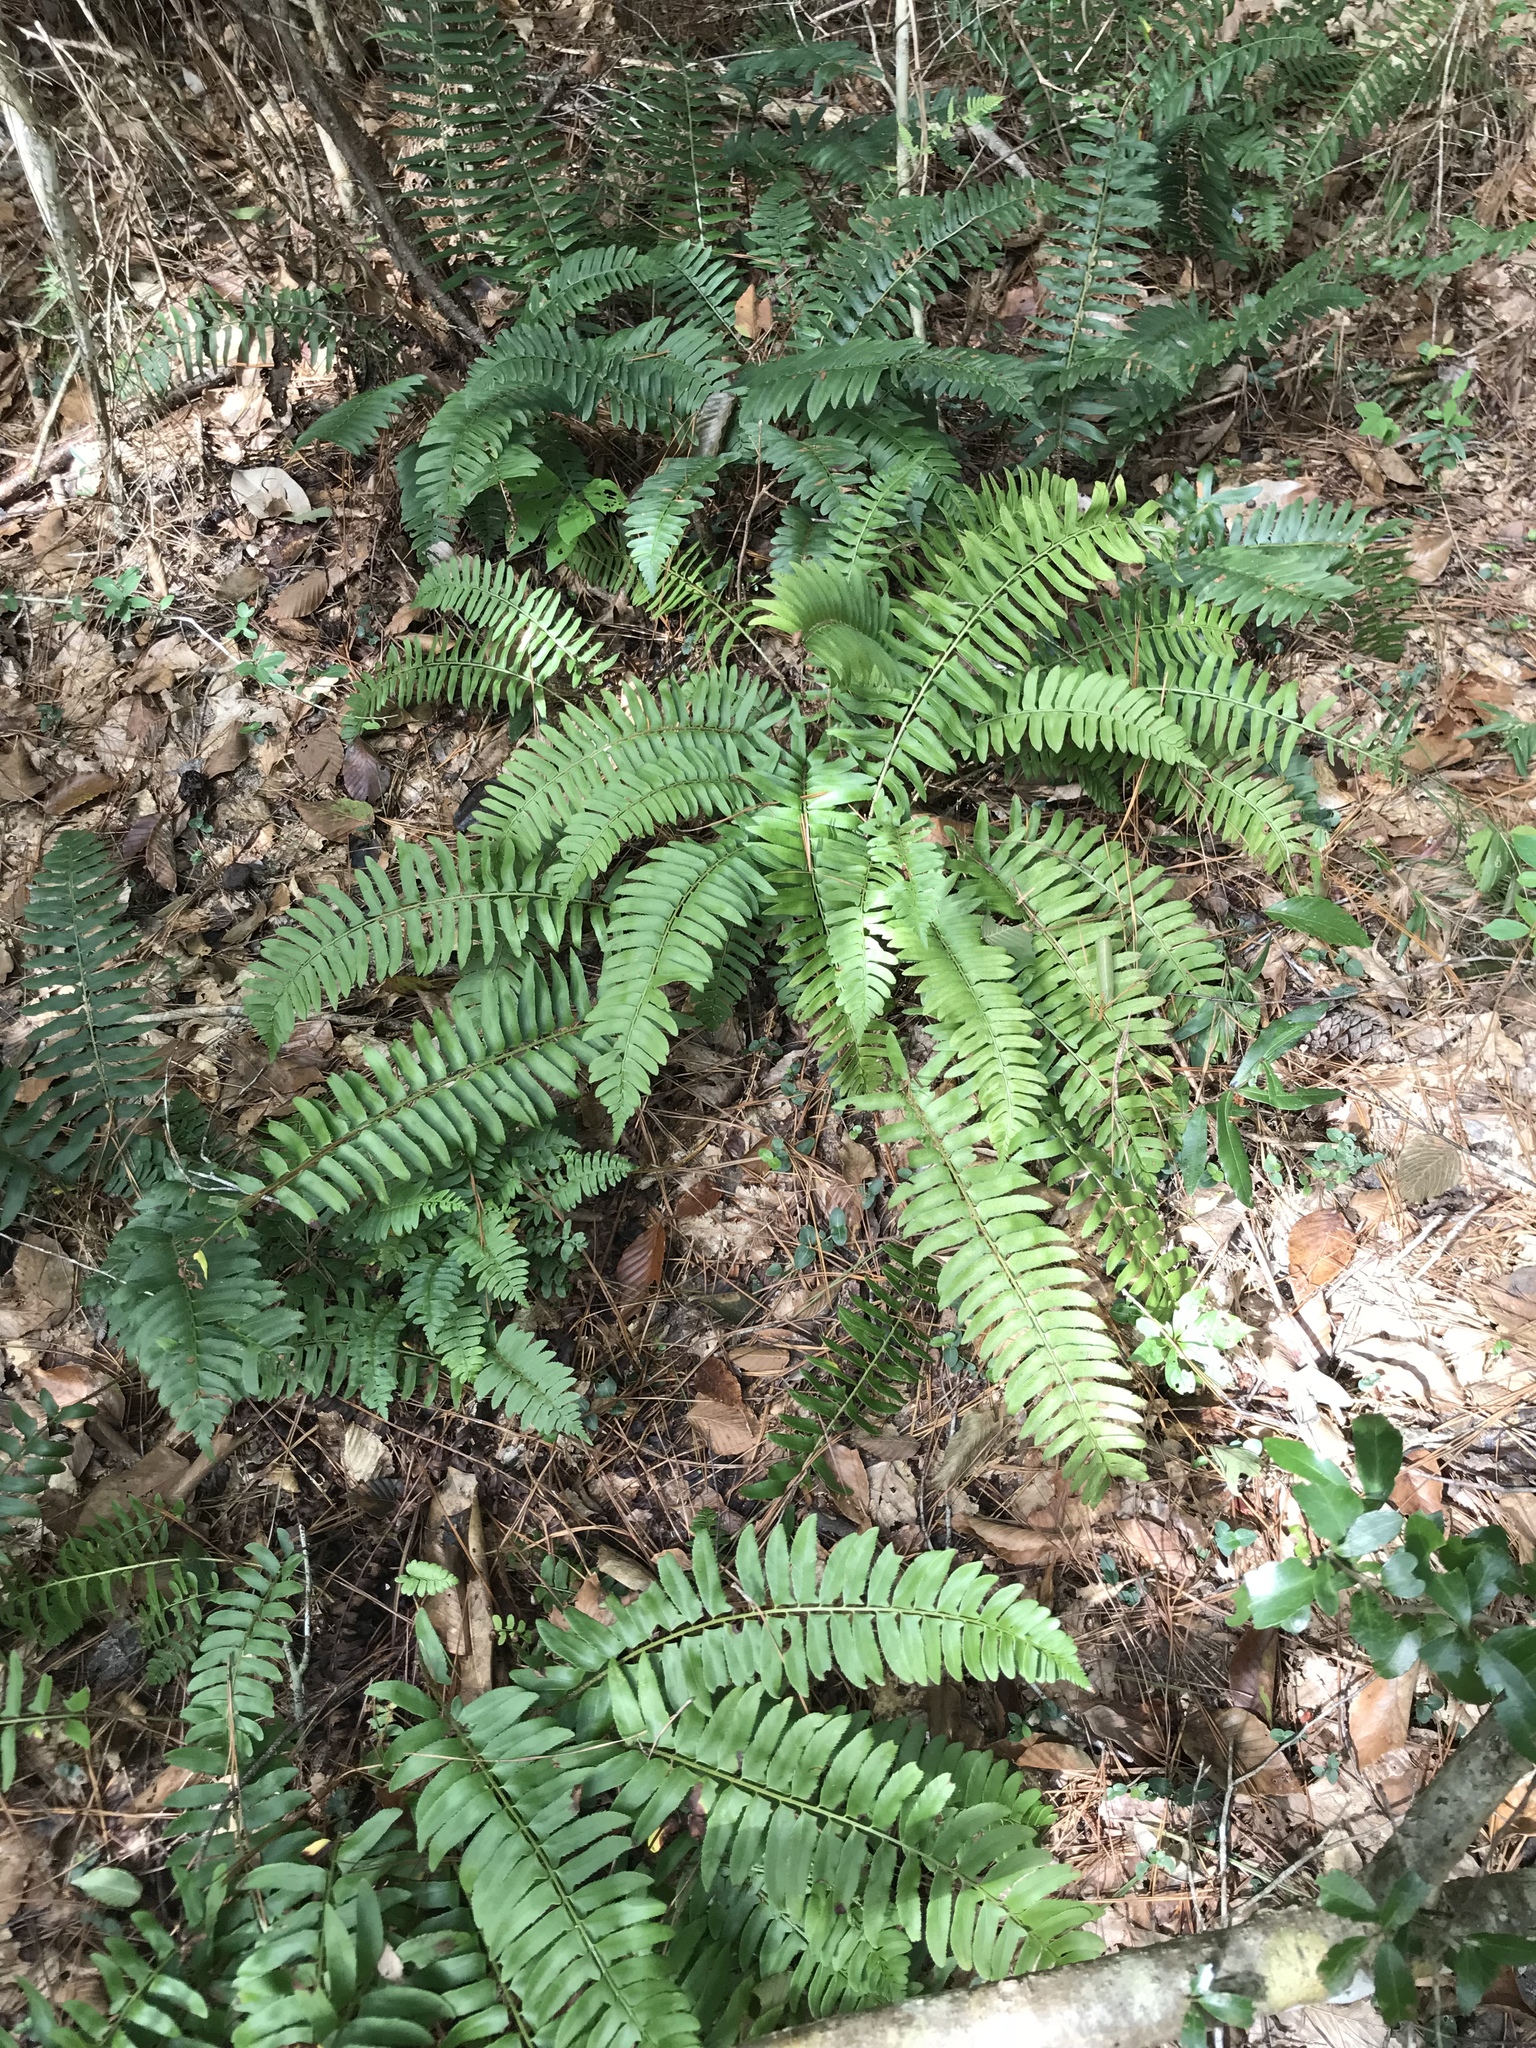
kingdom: Plantae
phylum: Tracheophyta
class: Polypodiopsida
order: Polypodiales
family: Dryopteridaceae
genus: Polystichum
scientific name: Polystichum acrostichoides
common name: Christmas fern
